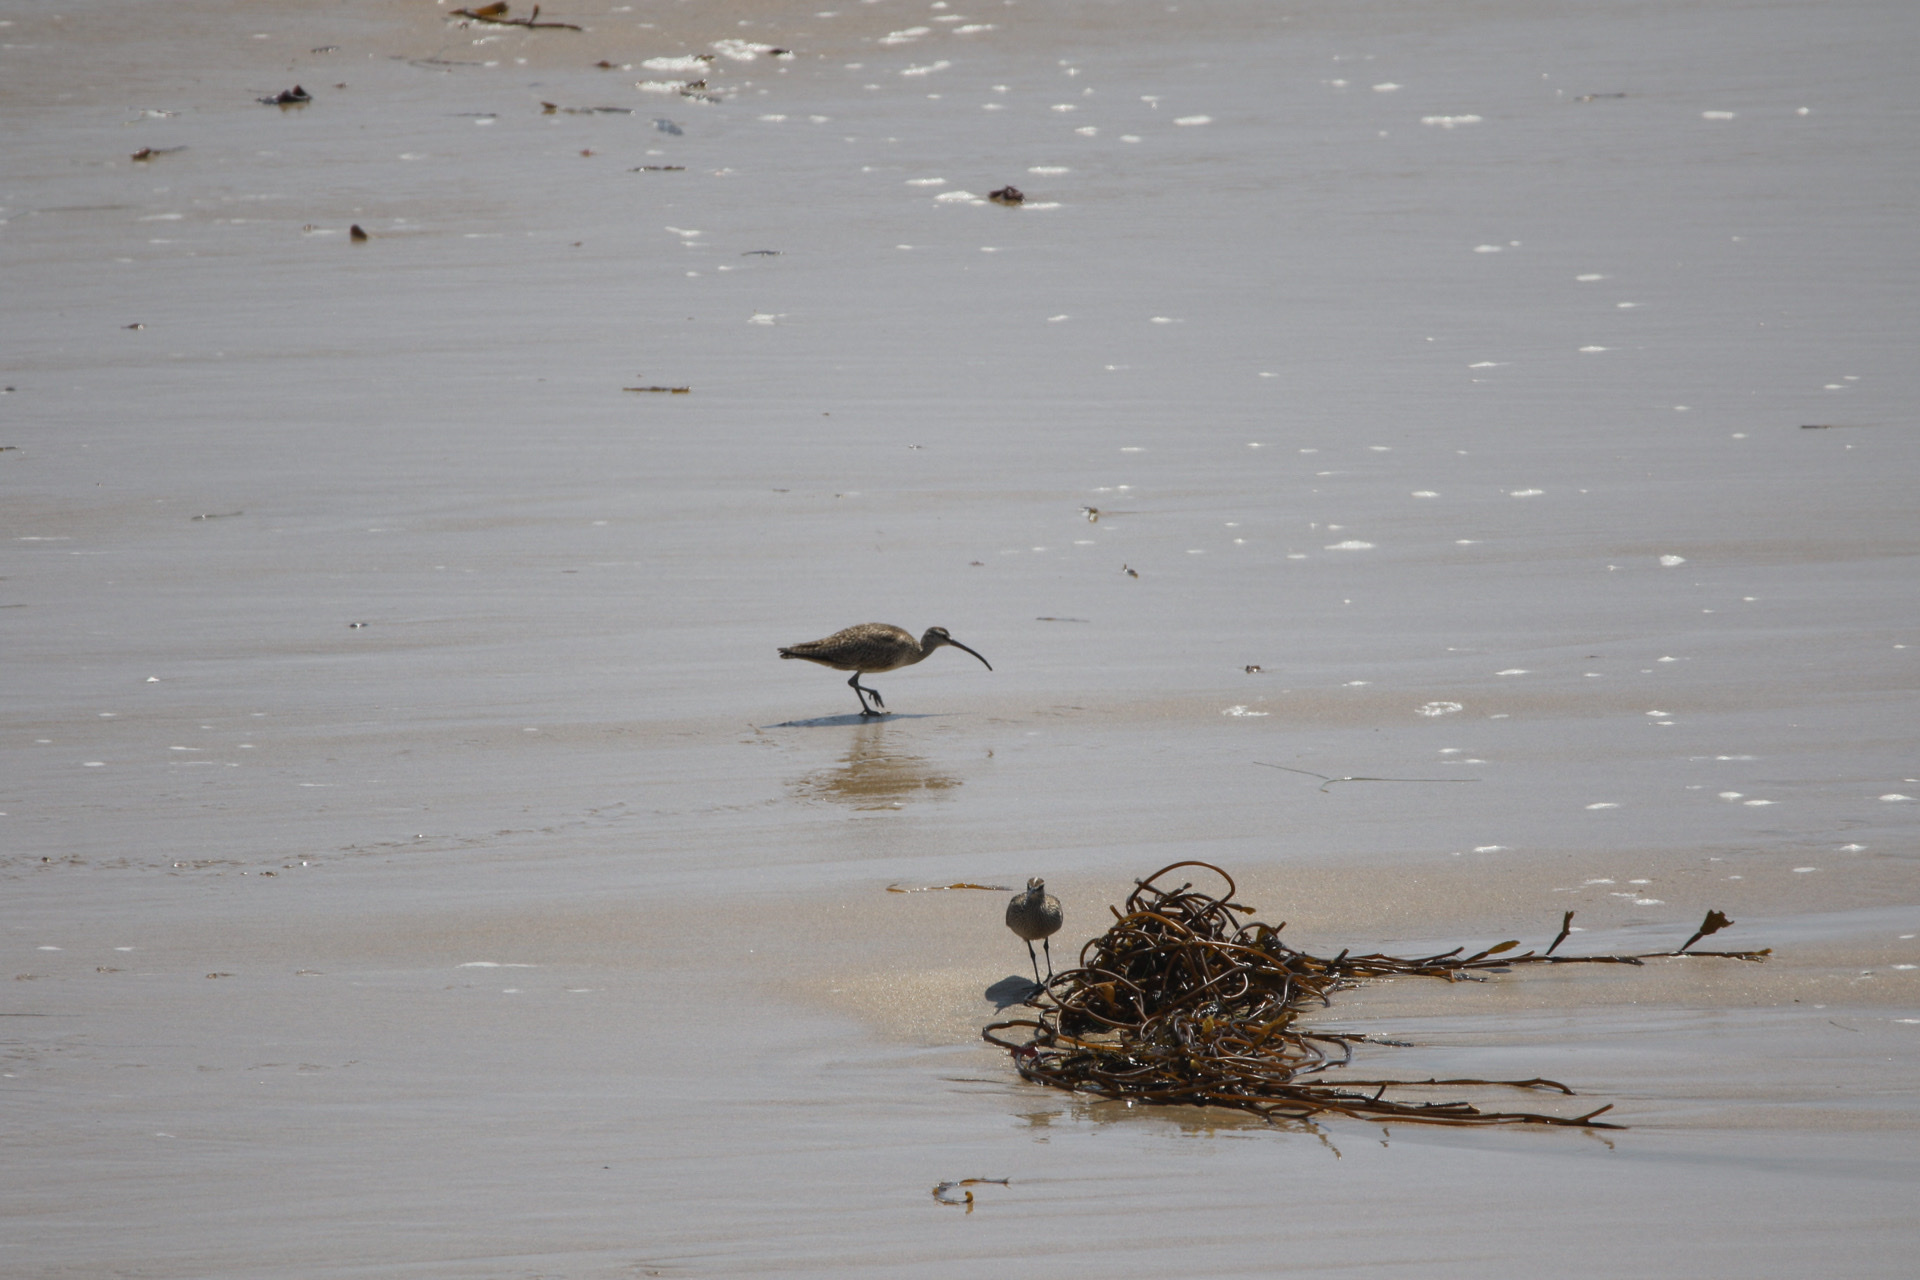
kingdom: Animalia
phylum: Chordata
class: Aves
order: Charadriiformes
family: Scolopacidae
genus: Numenius
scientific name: Numenius phaeopus
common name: Whimbrel
